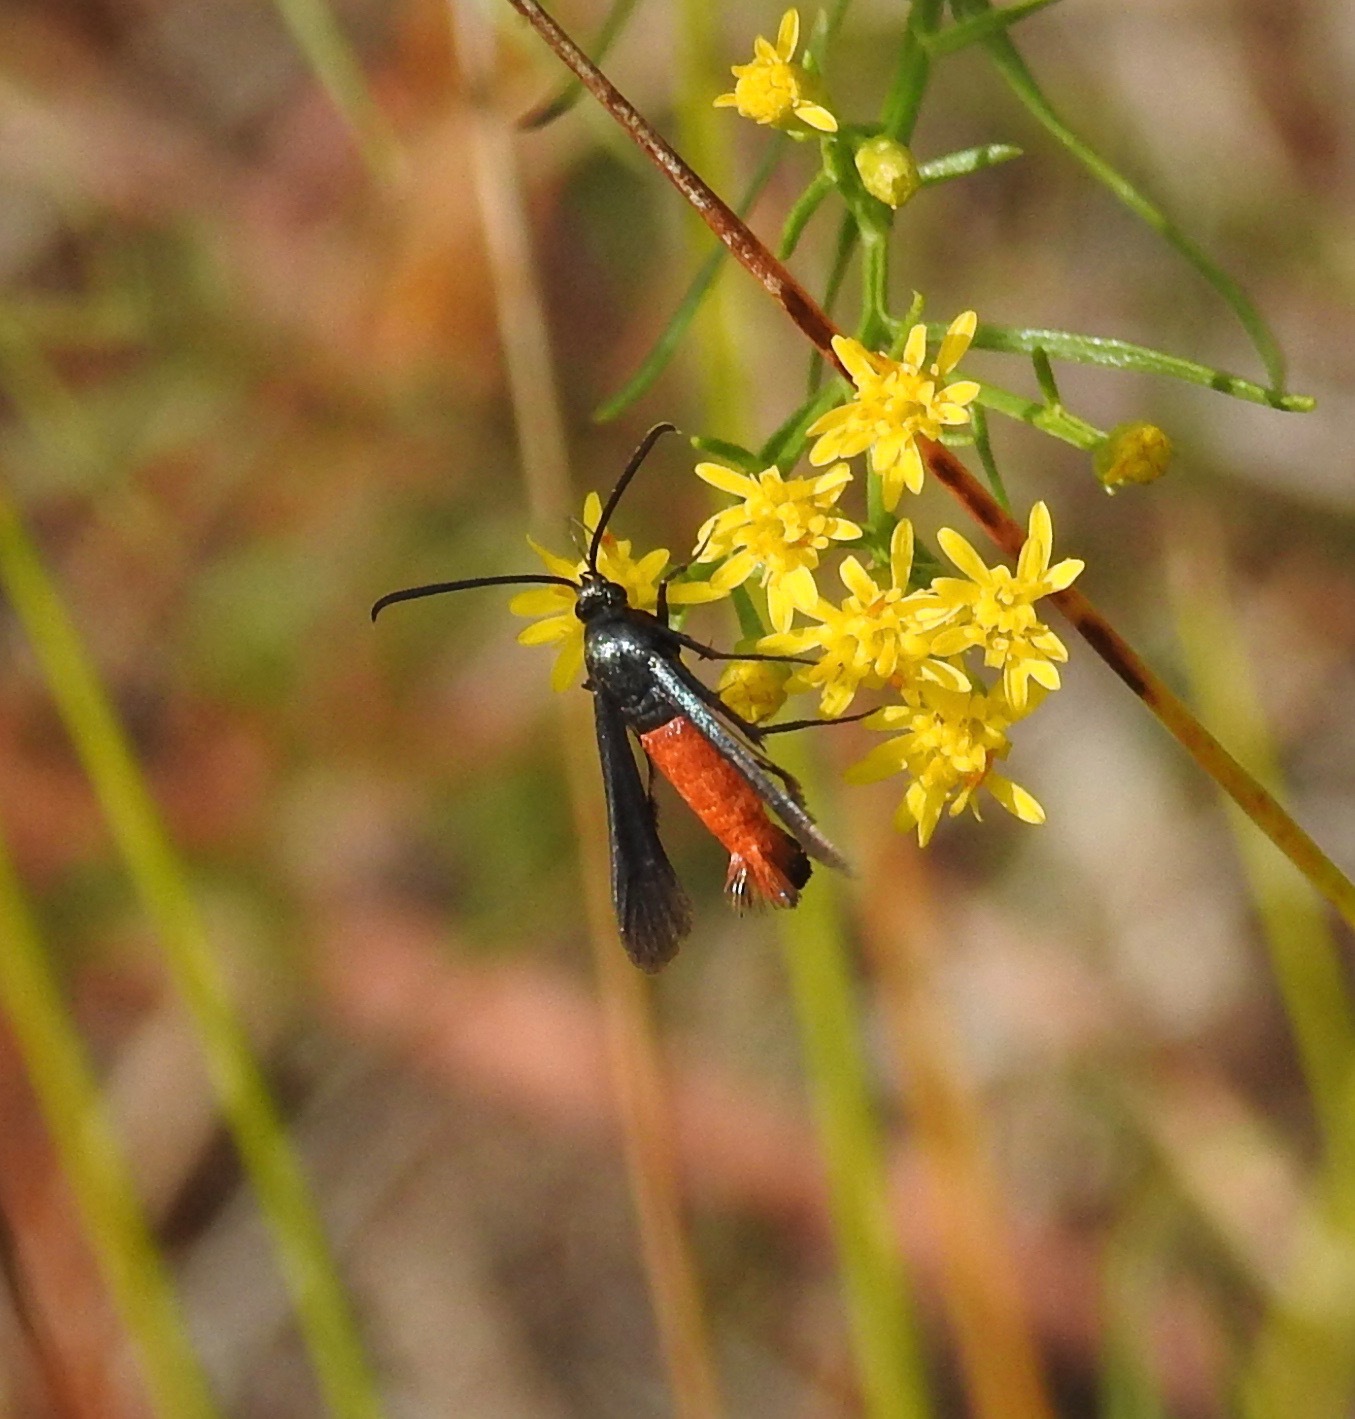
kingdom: Animalia
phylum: Arthropoda
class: Insecta
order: Lepidoptera
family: Sesiidae
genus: Synanthedon
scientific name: Synanthedon geliformis
